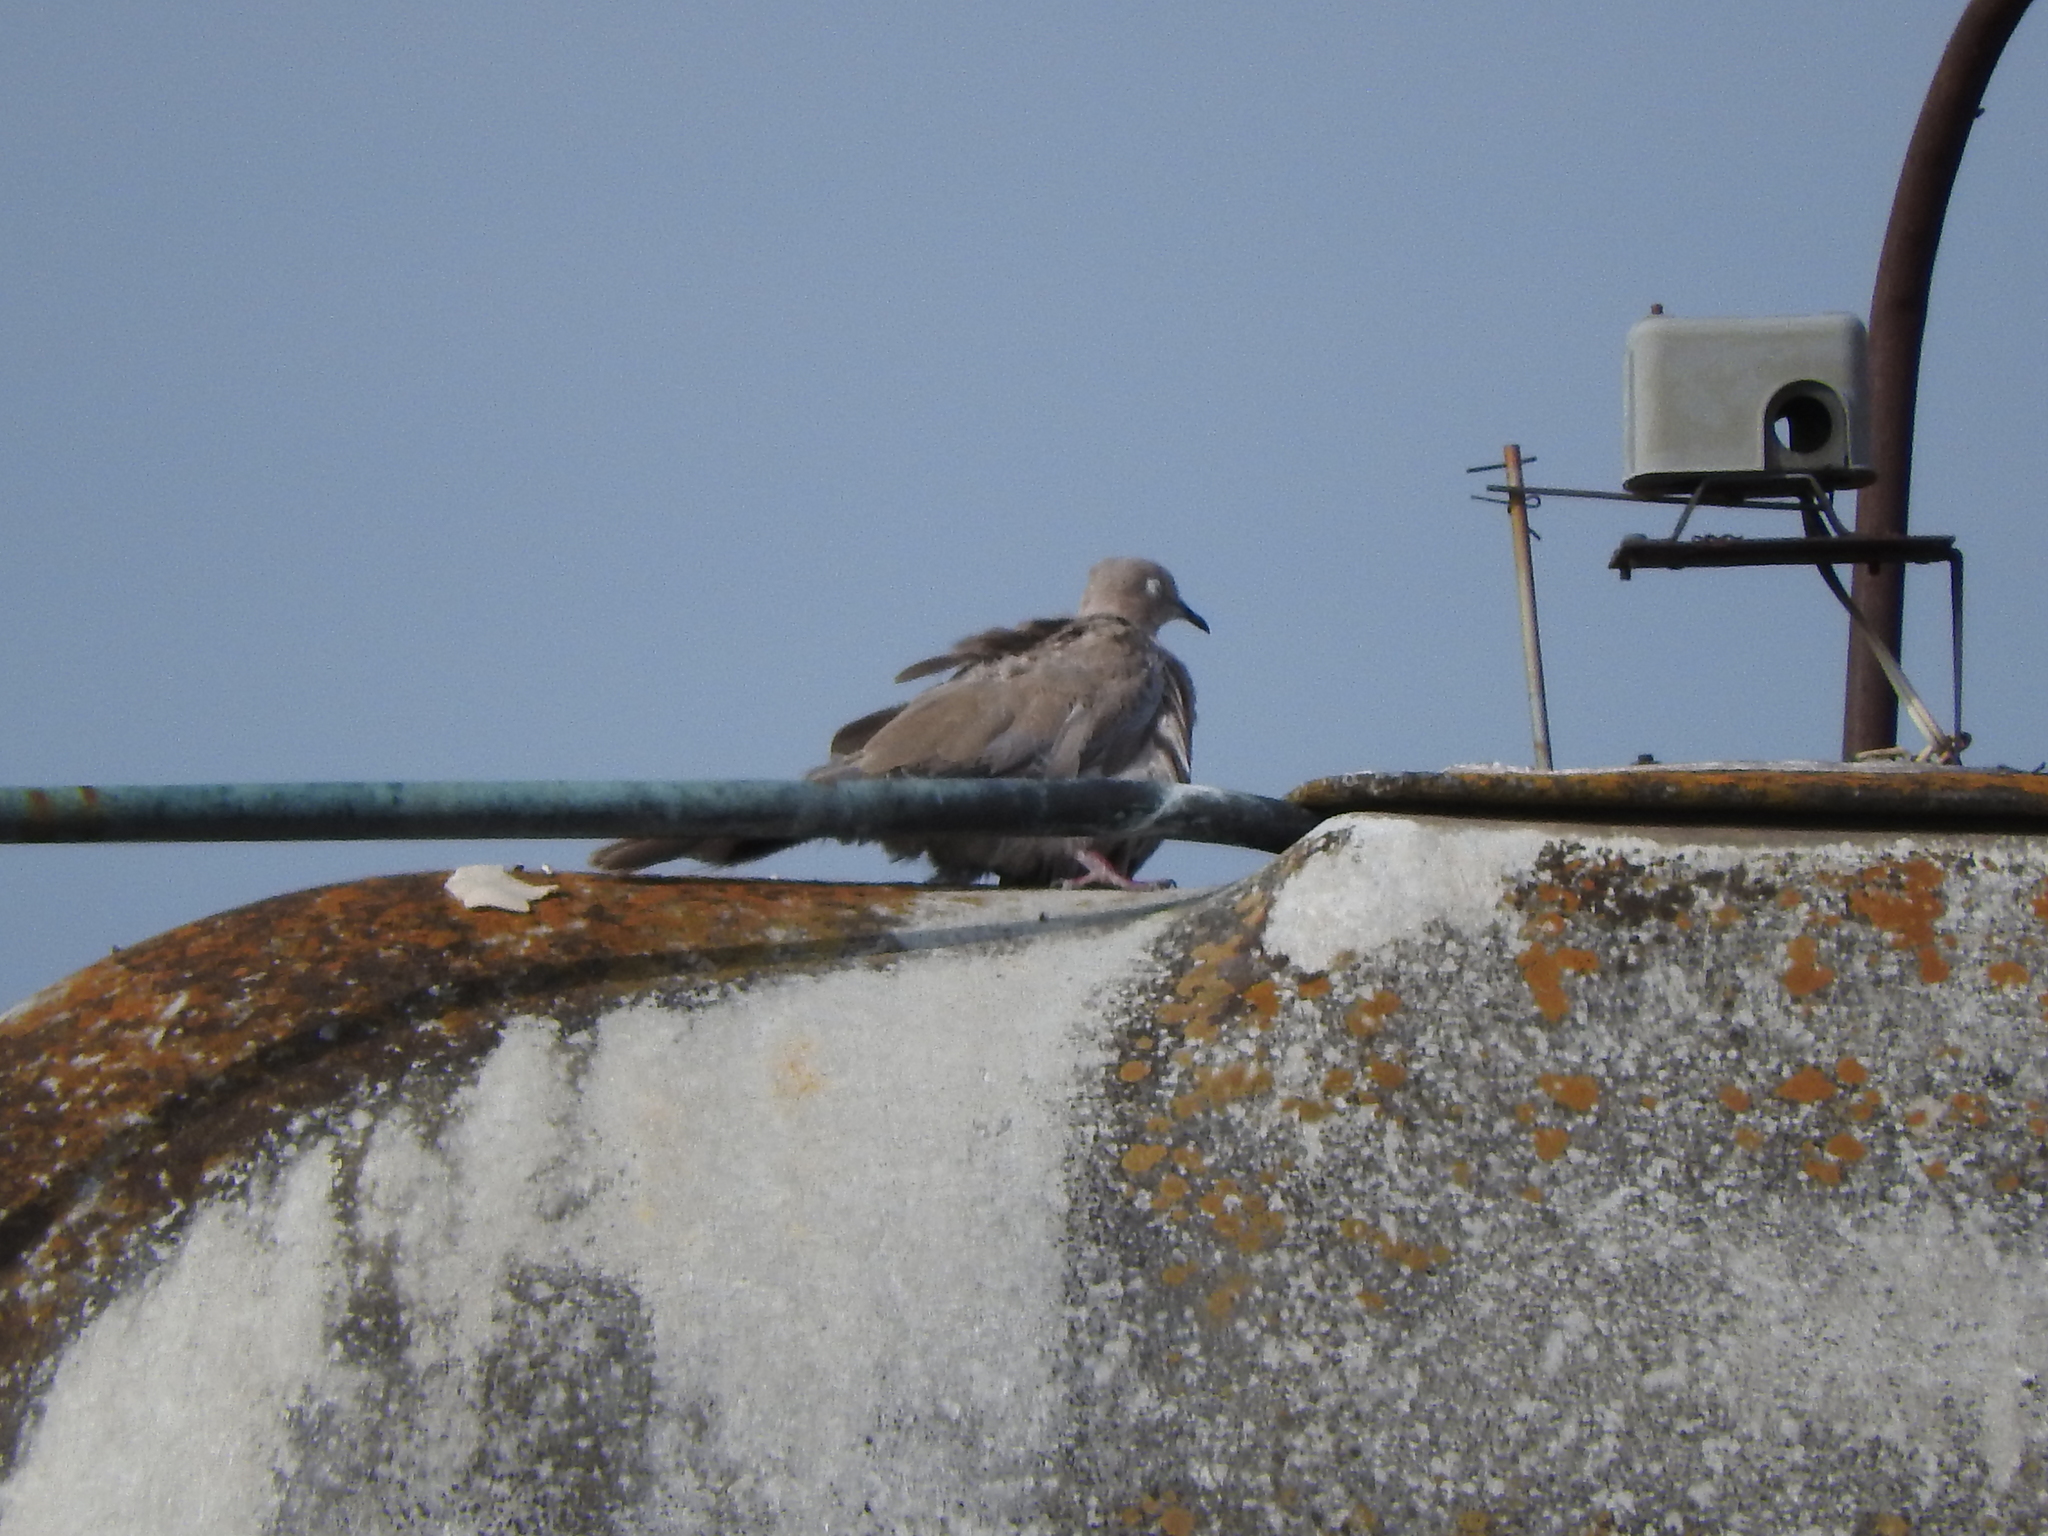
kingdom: Animalia
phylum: Chordata
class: Aves
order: Columbiformes
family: Columbidae
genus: Zenaida
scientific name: Zenaida asiatica
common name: White-winged dove
